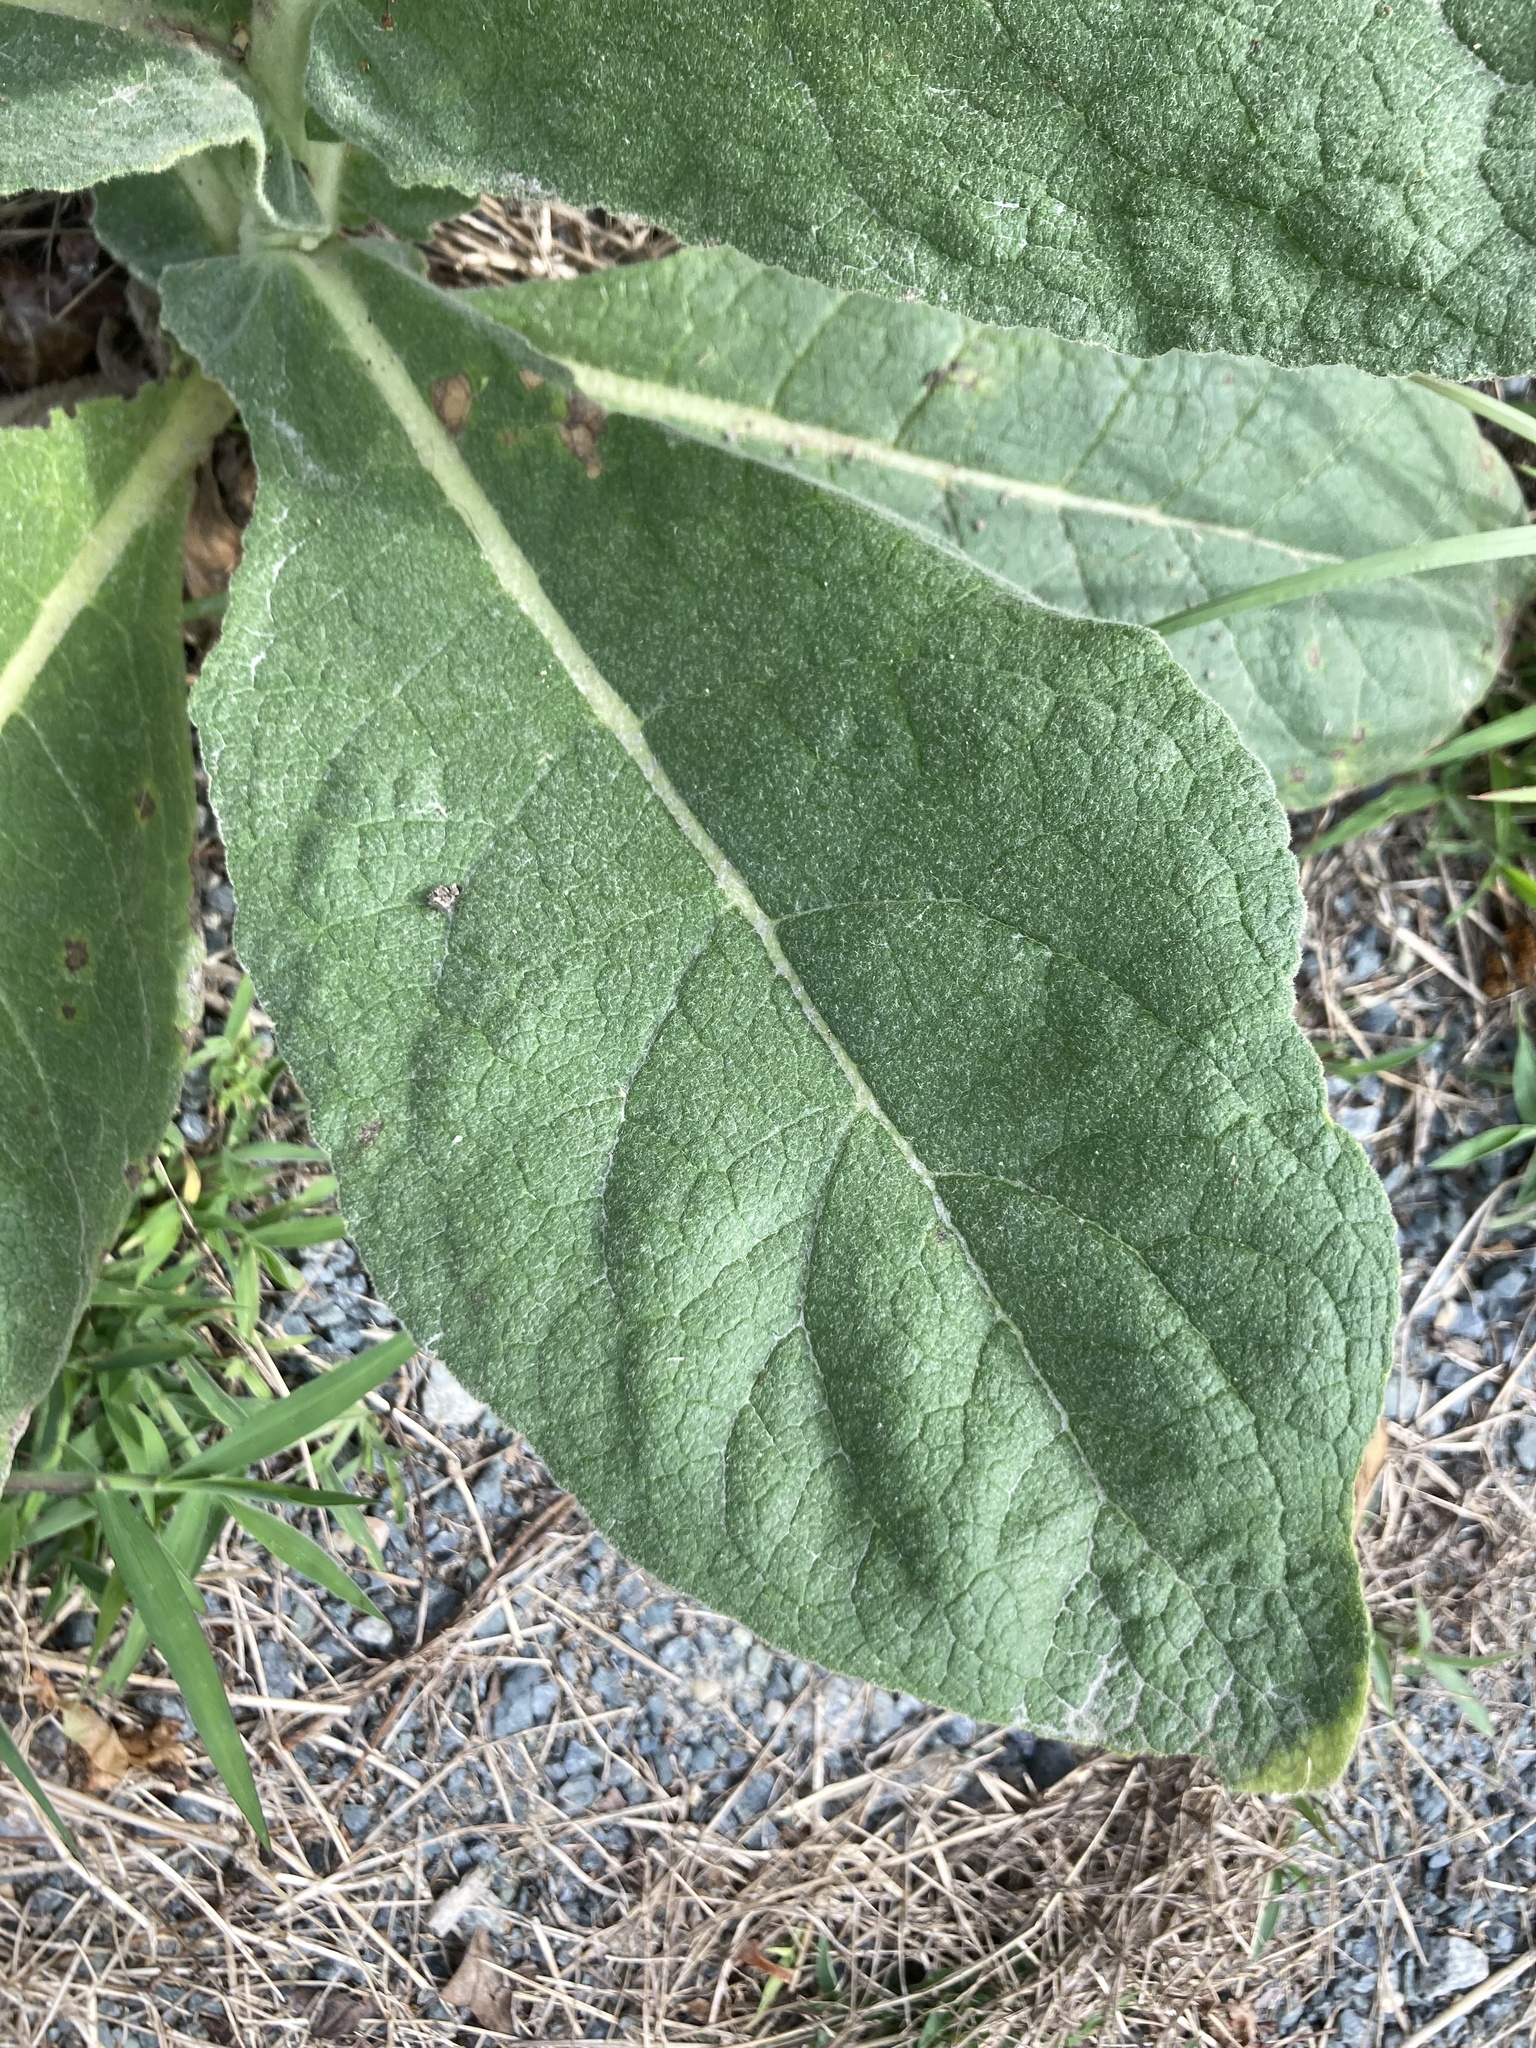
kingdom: Plantae
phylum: Tracheophyta
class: Magnoliopsida
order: Lamiales
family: Scrophulariaceae
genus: Verbascum
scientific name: Verbascum thapsus
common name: Common mullein
